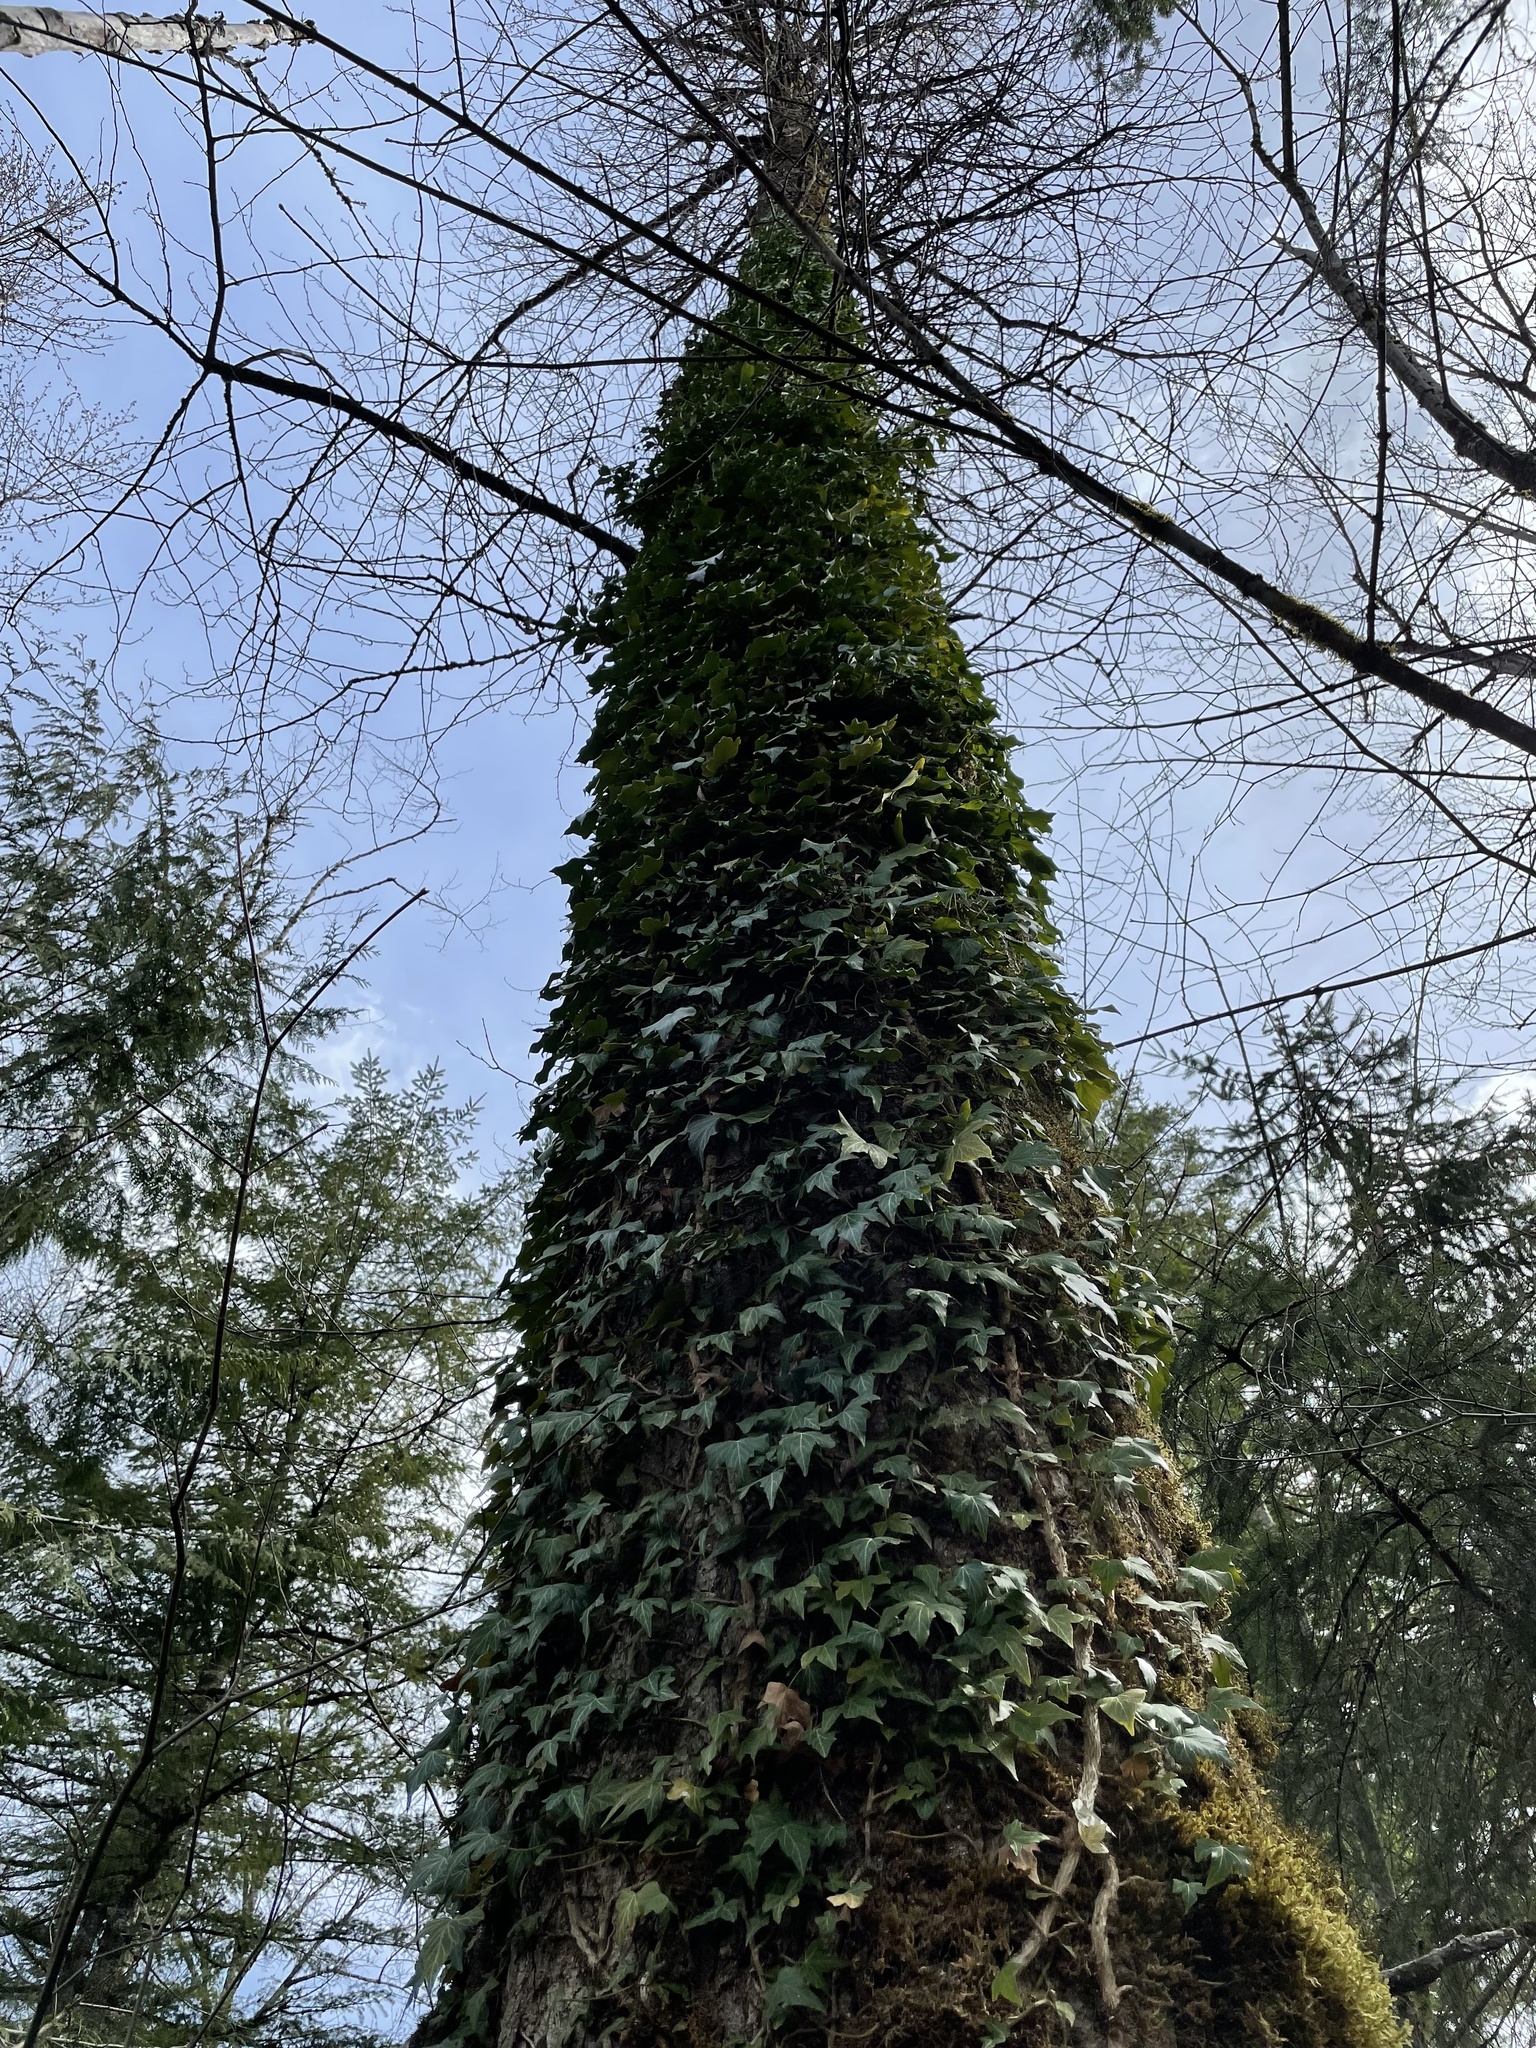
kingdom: Plantae
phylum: Tracheophyta
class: Magnoliopsida
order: Apiales
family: Araliaceae
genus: Hedera
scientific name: Hedera helix
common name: Ivy
